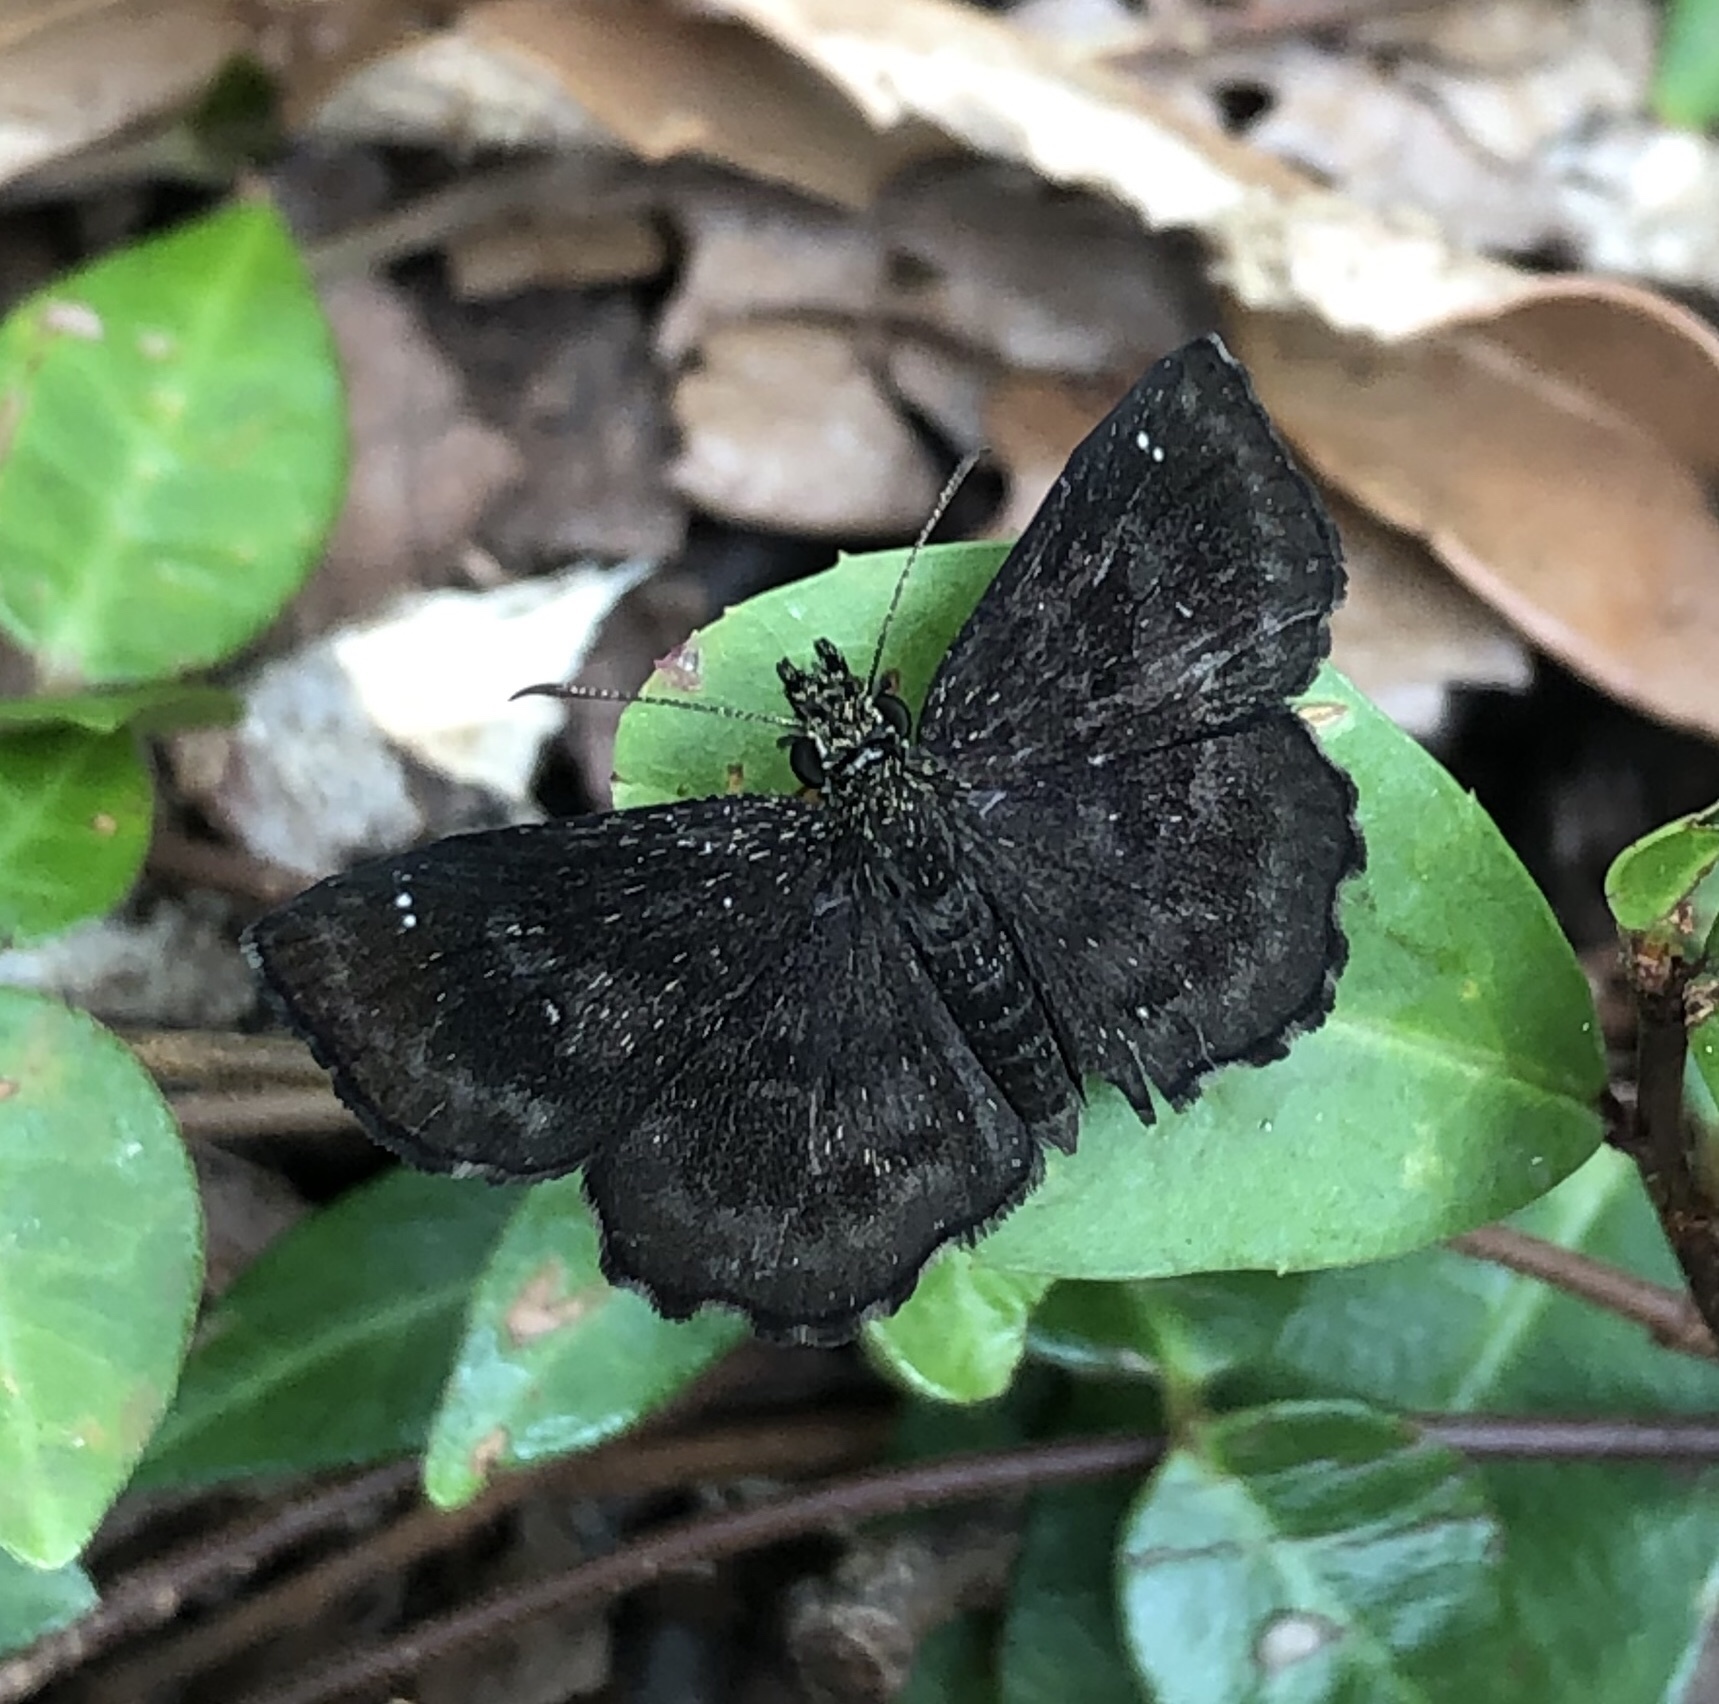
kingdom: Animalia
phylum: Arthropoda
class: Insecta
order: Lepidoptera
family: Hesperiidae
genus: Staphylus
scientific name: Staphylus mazans
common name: Mazans scallopwing
